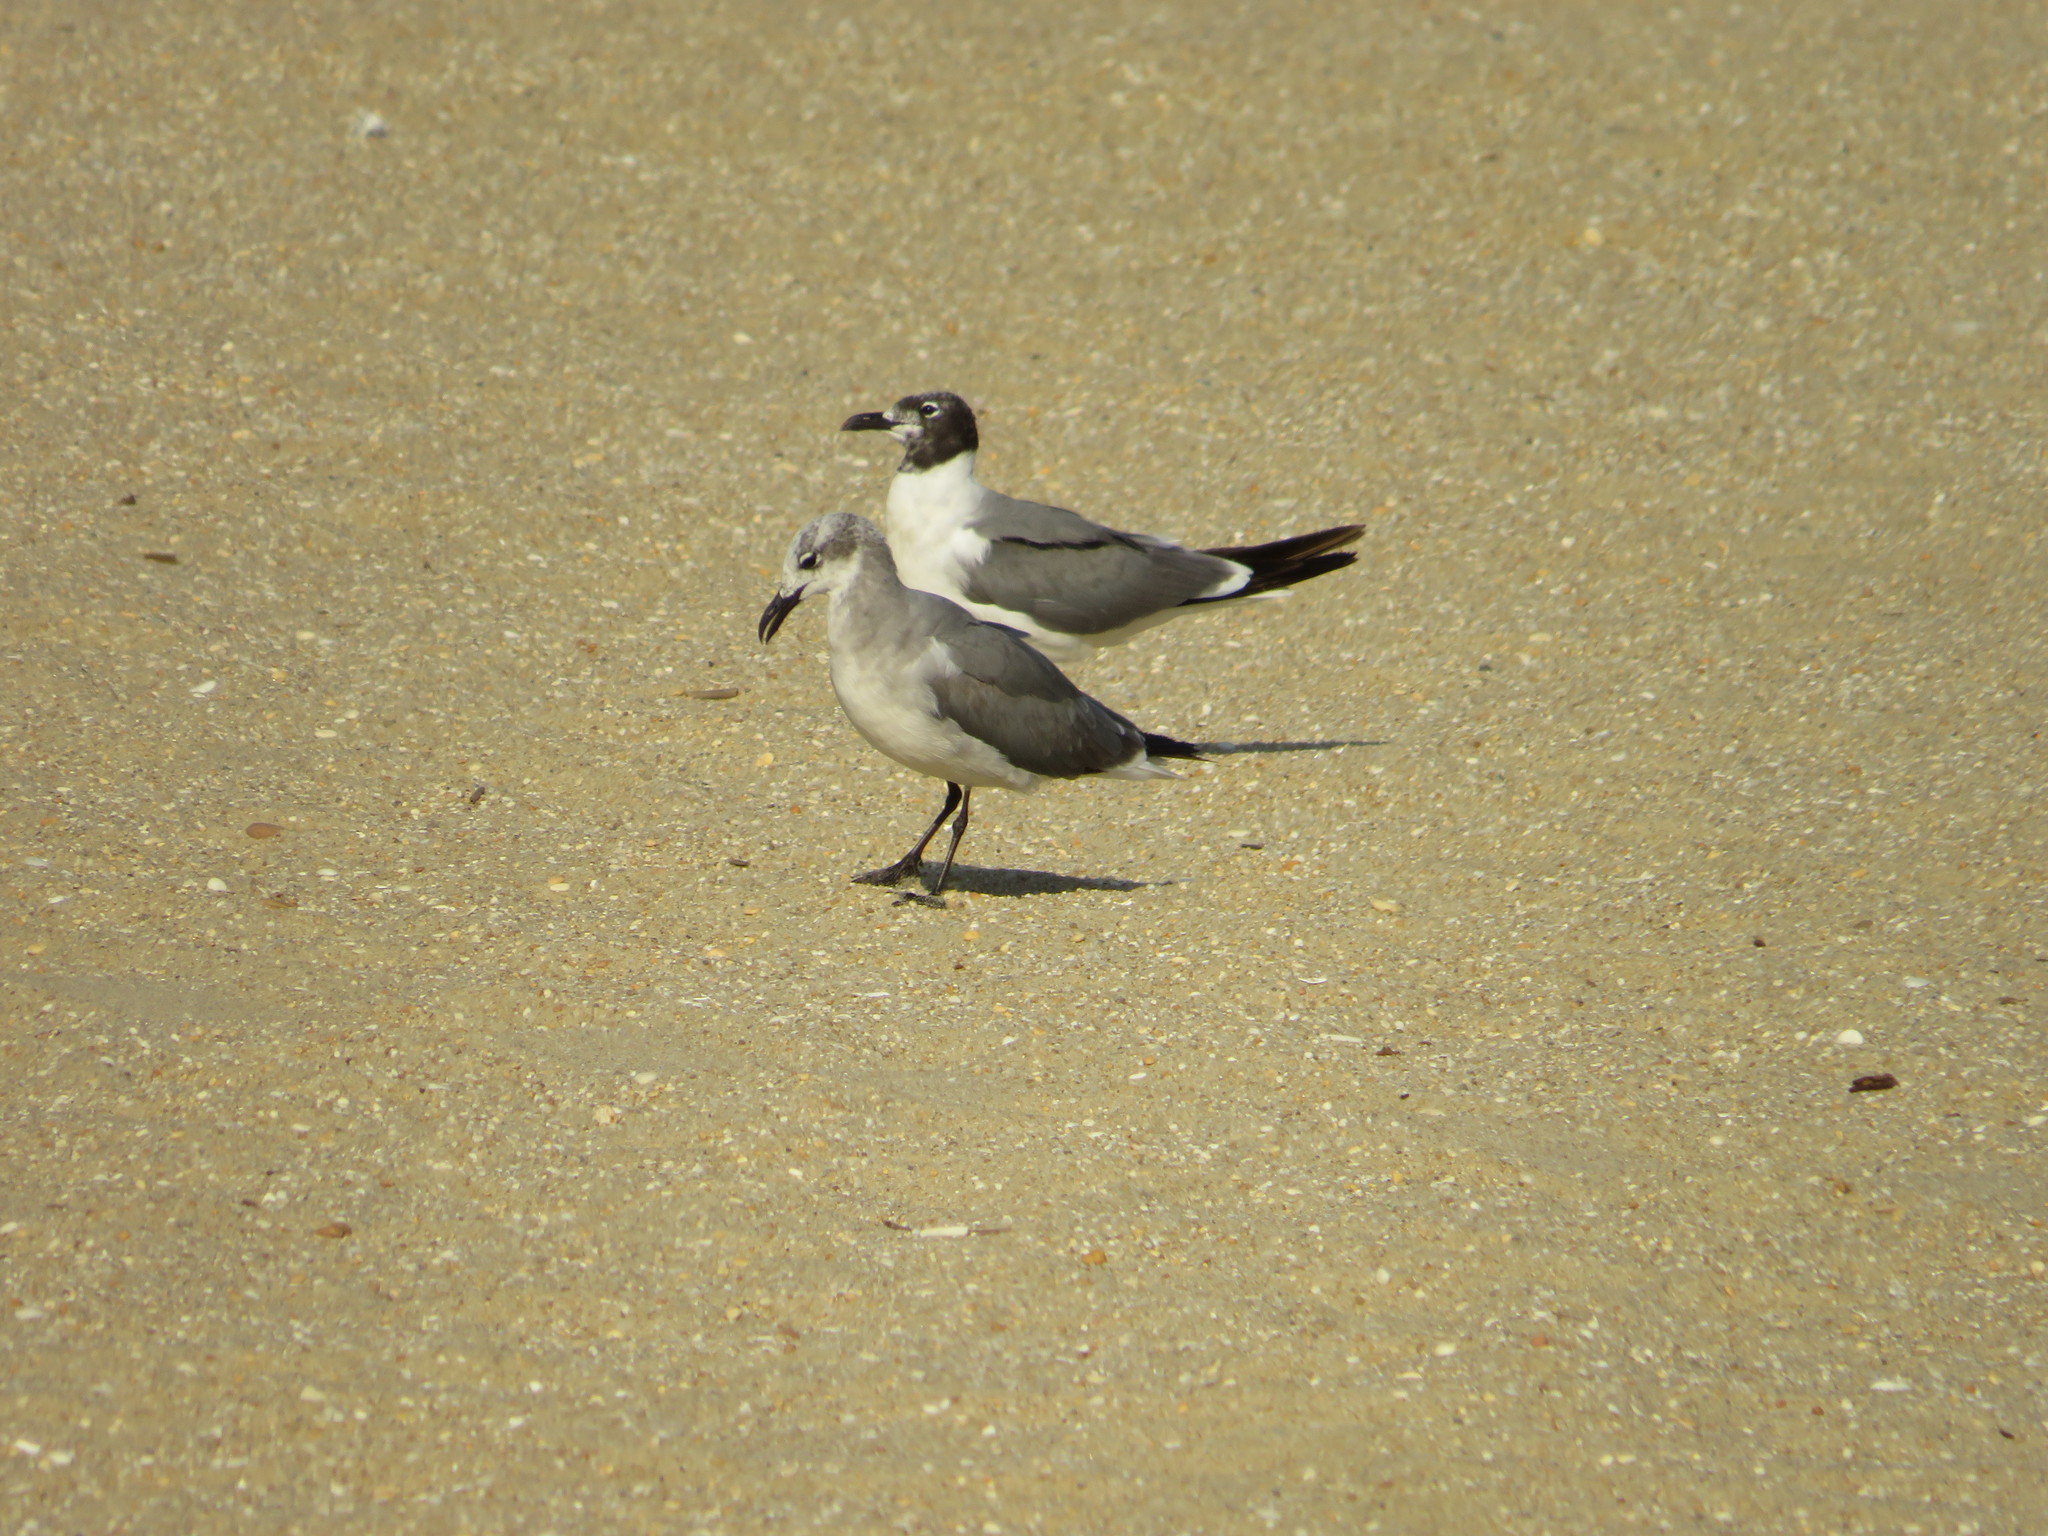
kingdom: Animalia
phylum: Chordata
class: Aves
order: Charadriiformes
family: Laridae
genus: Leucophaeus
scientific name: Leucophaeus atricilla
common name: Laughing gull
